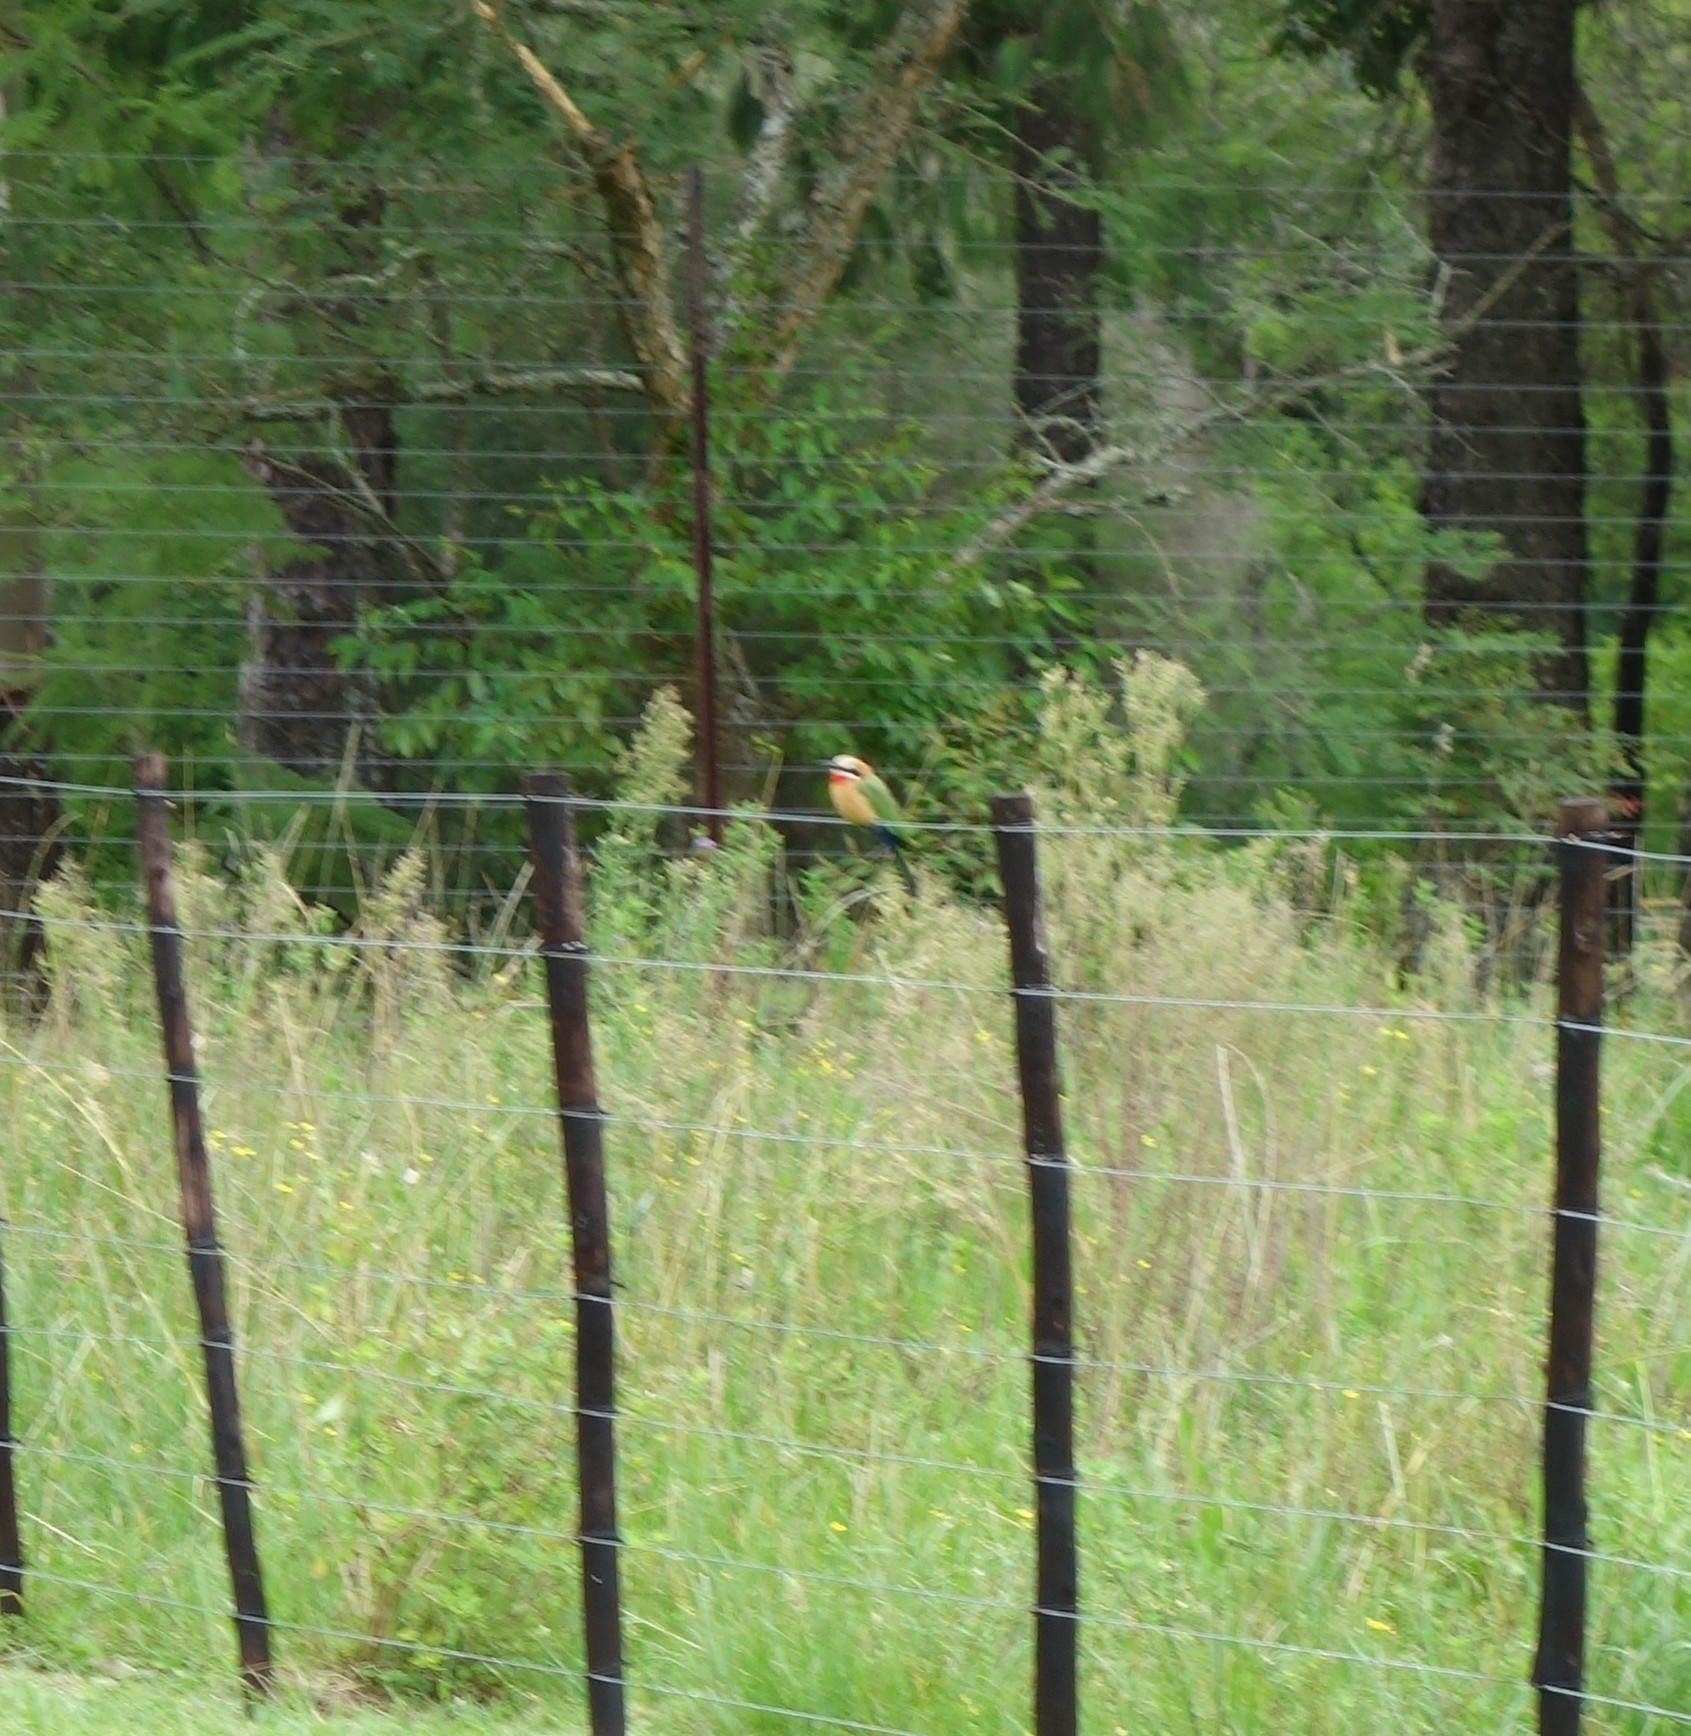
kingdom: Animalia
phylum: Chordata
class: Aves
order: Coraciiformes
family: Meropidae
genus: Merops
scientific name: Merops bullockoides
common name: White-fronted bee-eater
